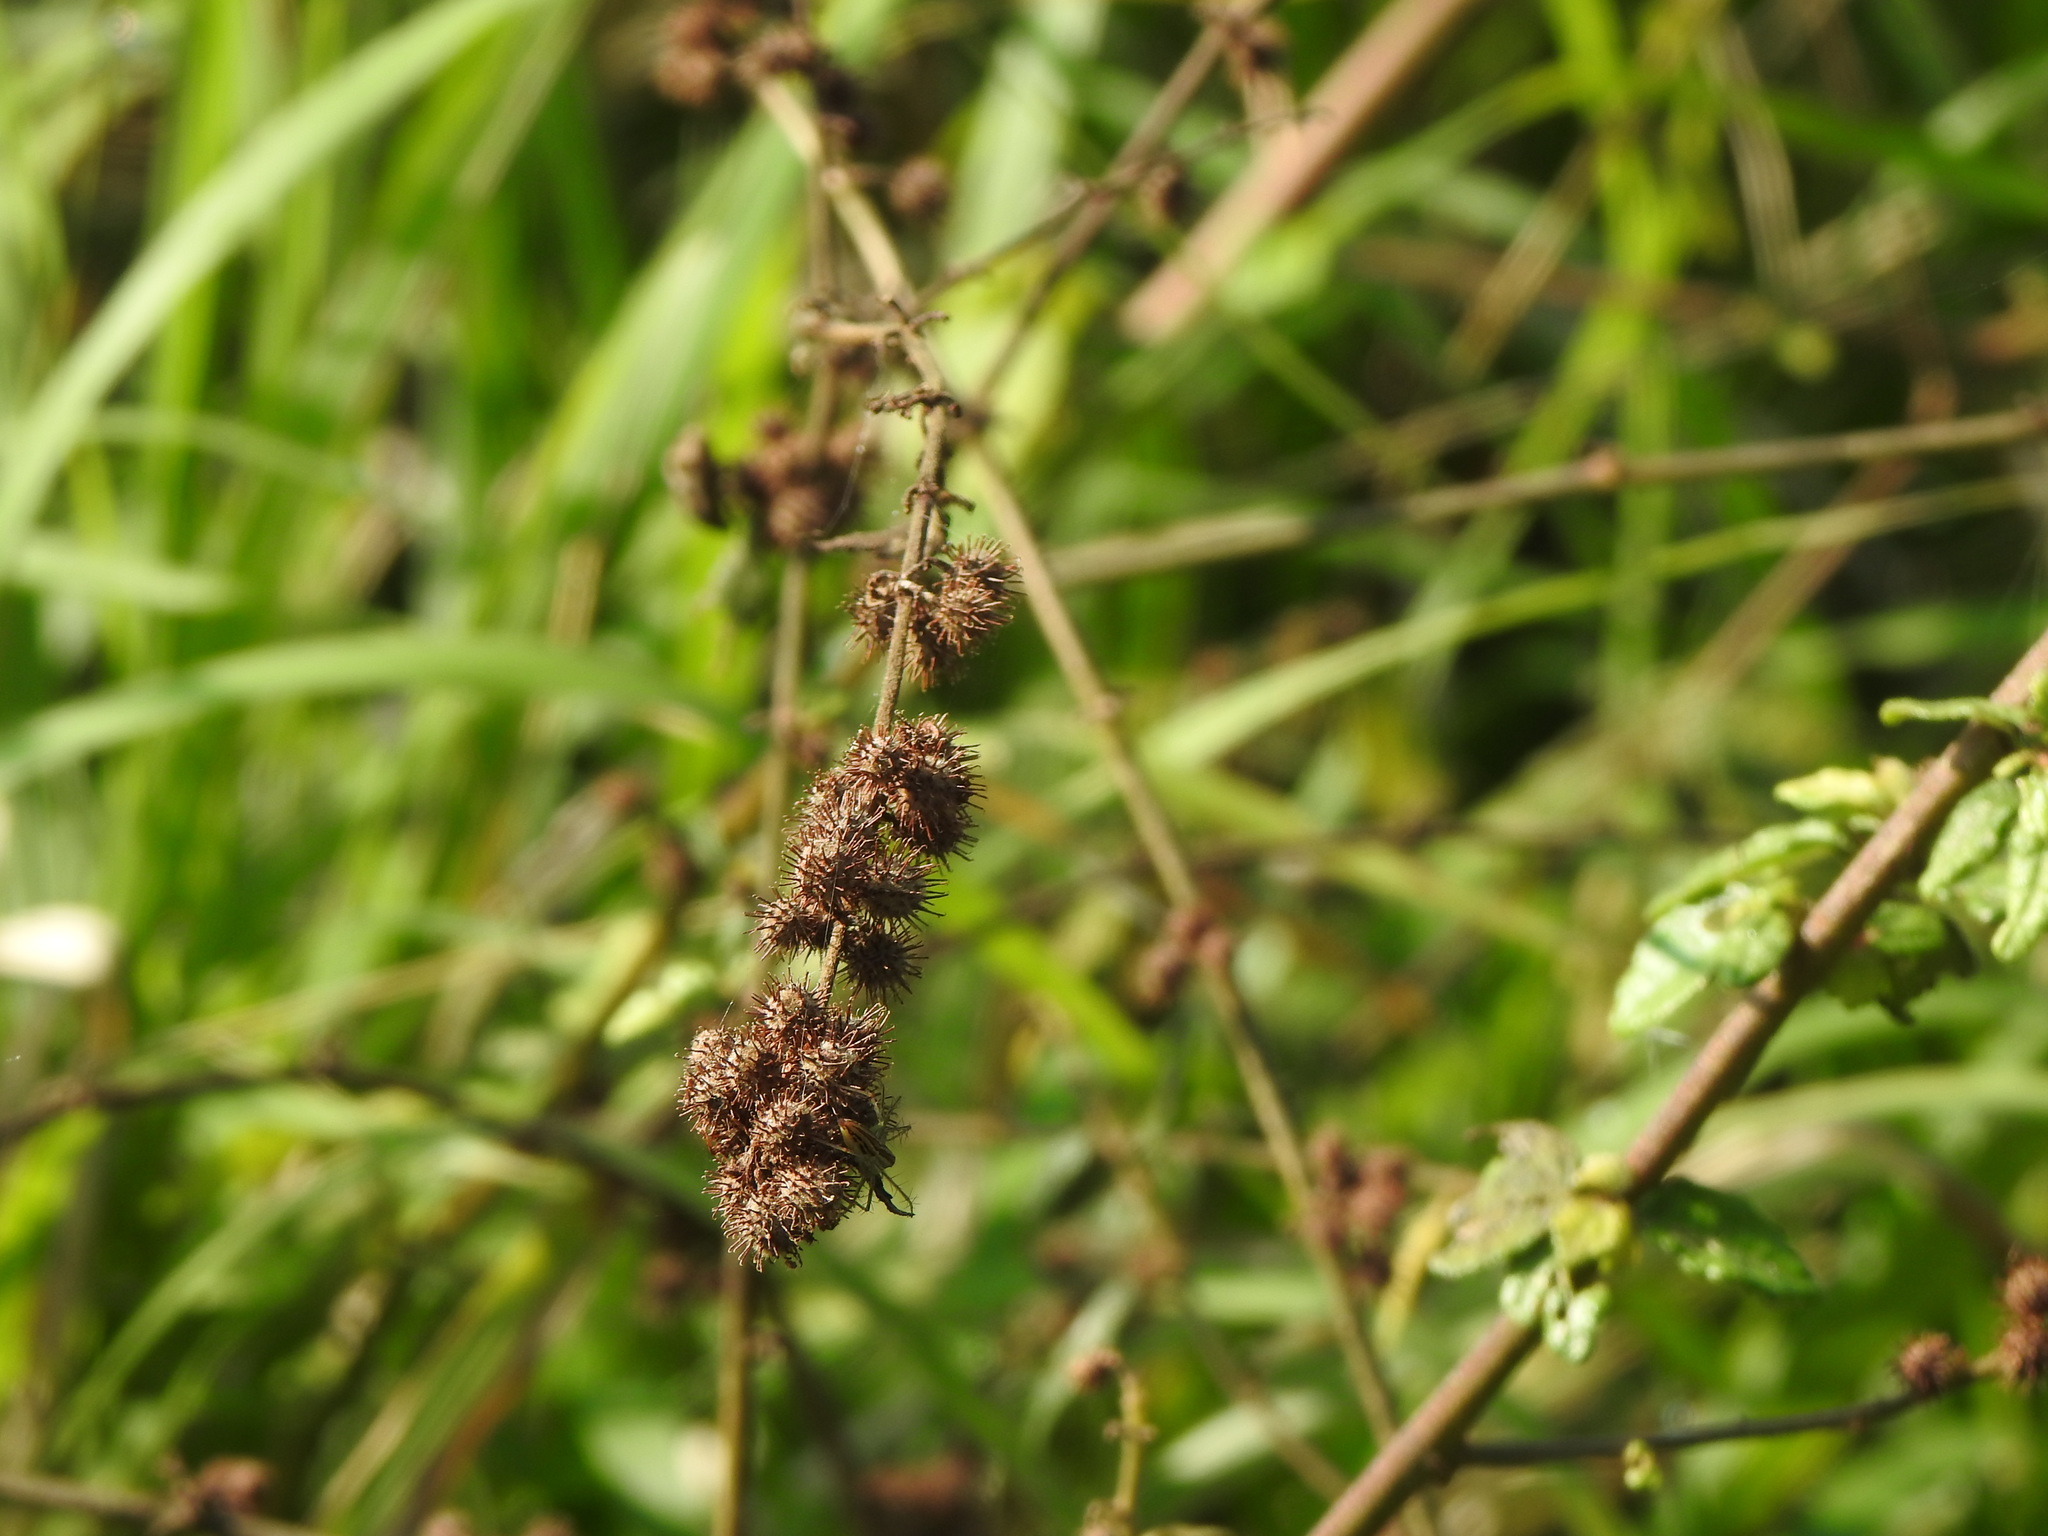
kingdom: Plantae
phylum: Tracheophyta
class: Magnoliopsida
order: Malvales
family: Malvaceae
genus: Triumfetta
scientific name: Triumfetta rhomboidea
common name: Diamond burbark
